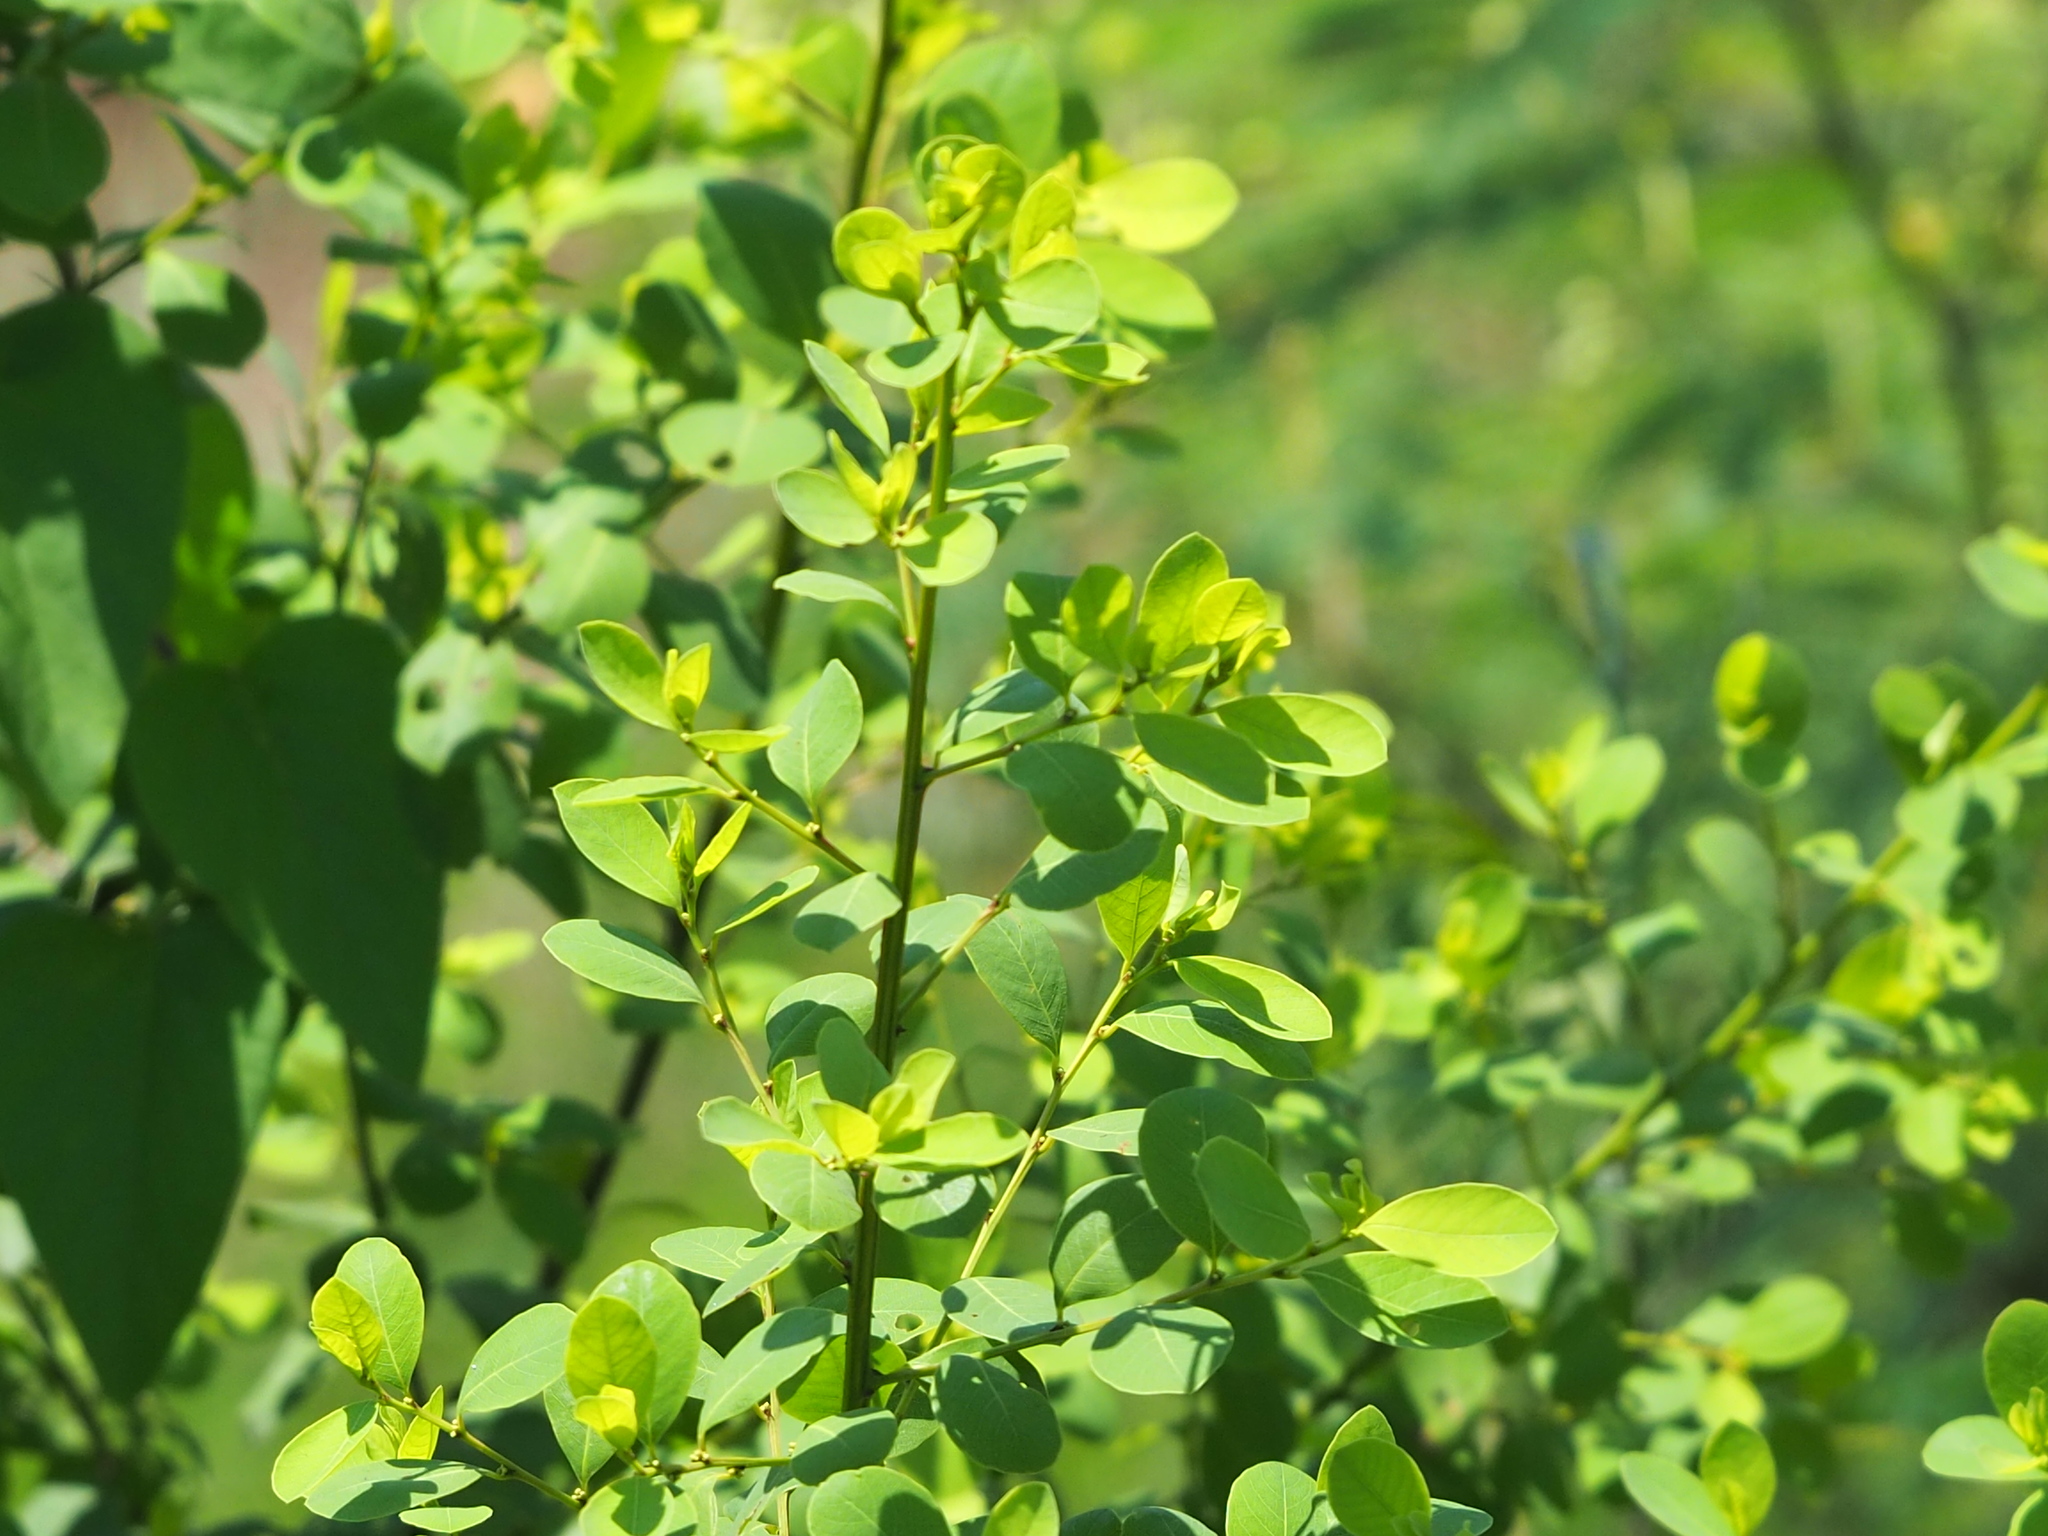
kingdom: Plantae
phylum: Tracheophyta
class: Magnoliopsida
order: Malpighiales
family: Phyllanthaceae
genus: Flueggea
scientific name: Flueggea virosa
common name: Common bushweed
